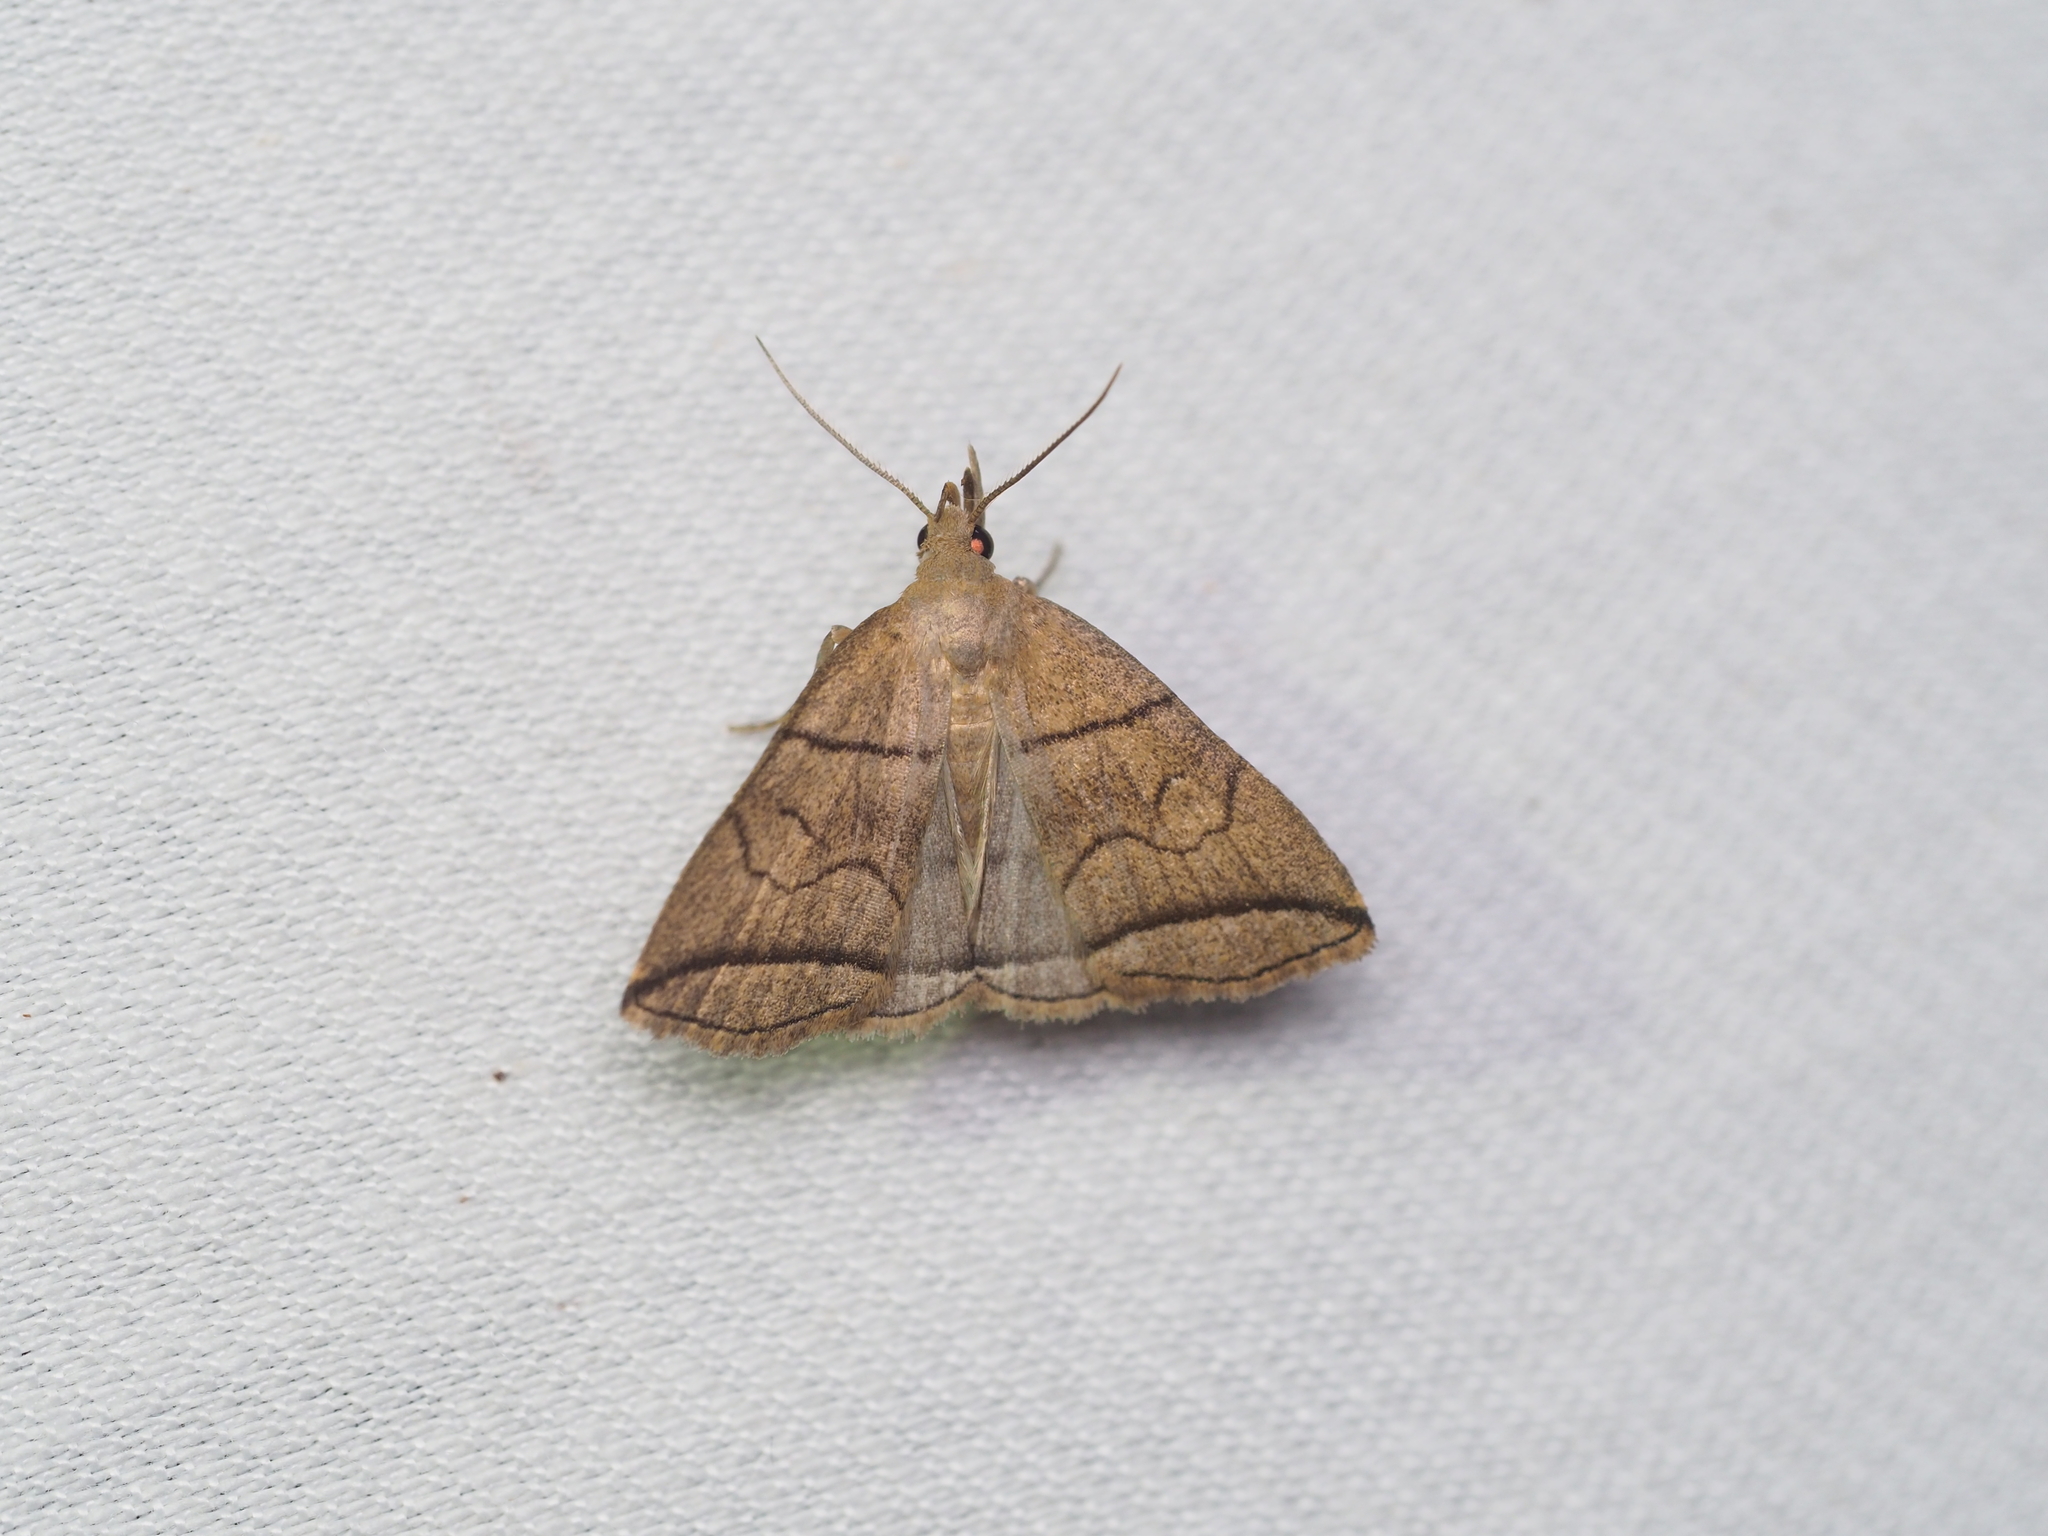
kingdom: Animalia
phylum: Arthropoda
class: Insecta
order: Lepidoptera
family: Erebidae
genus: Herminia
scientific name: Herminia grisealis
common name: Small fan-foot
